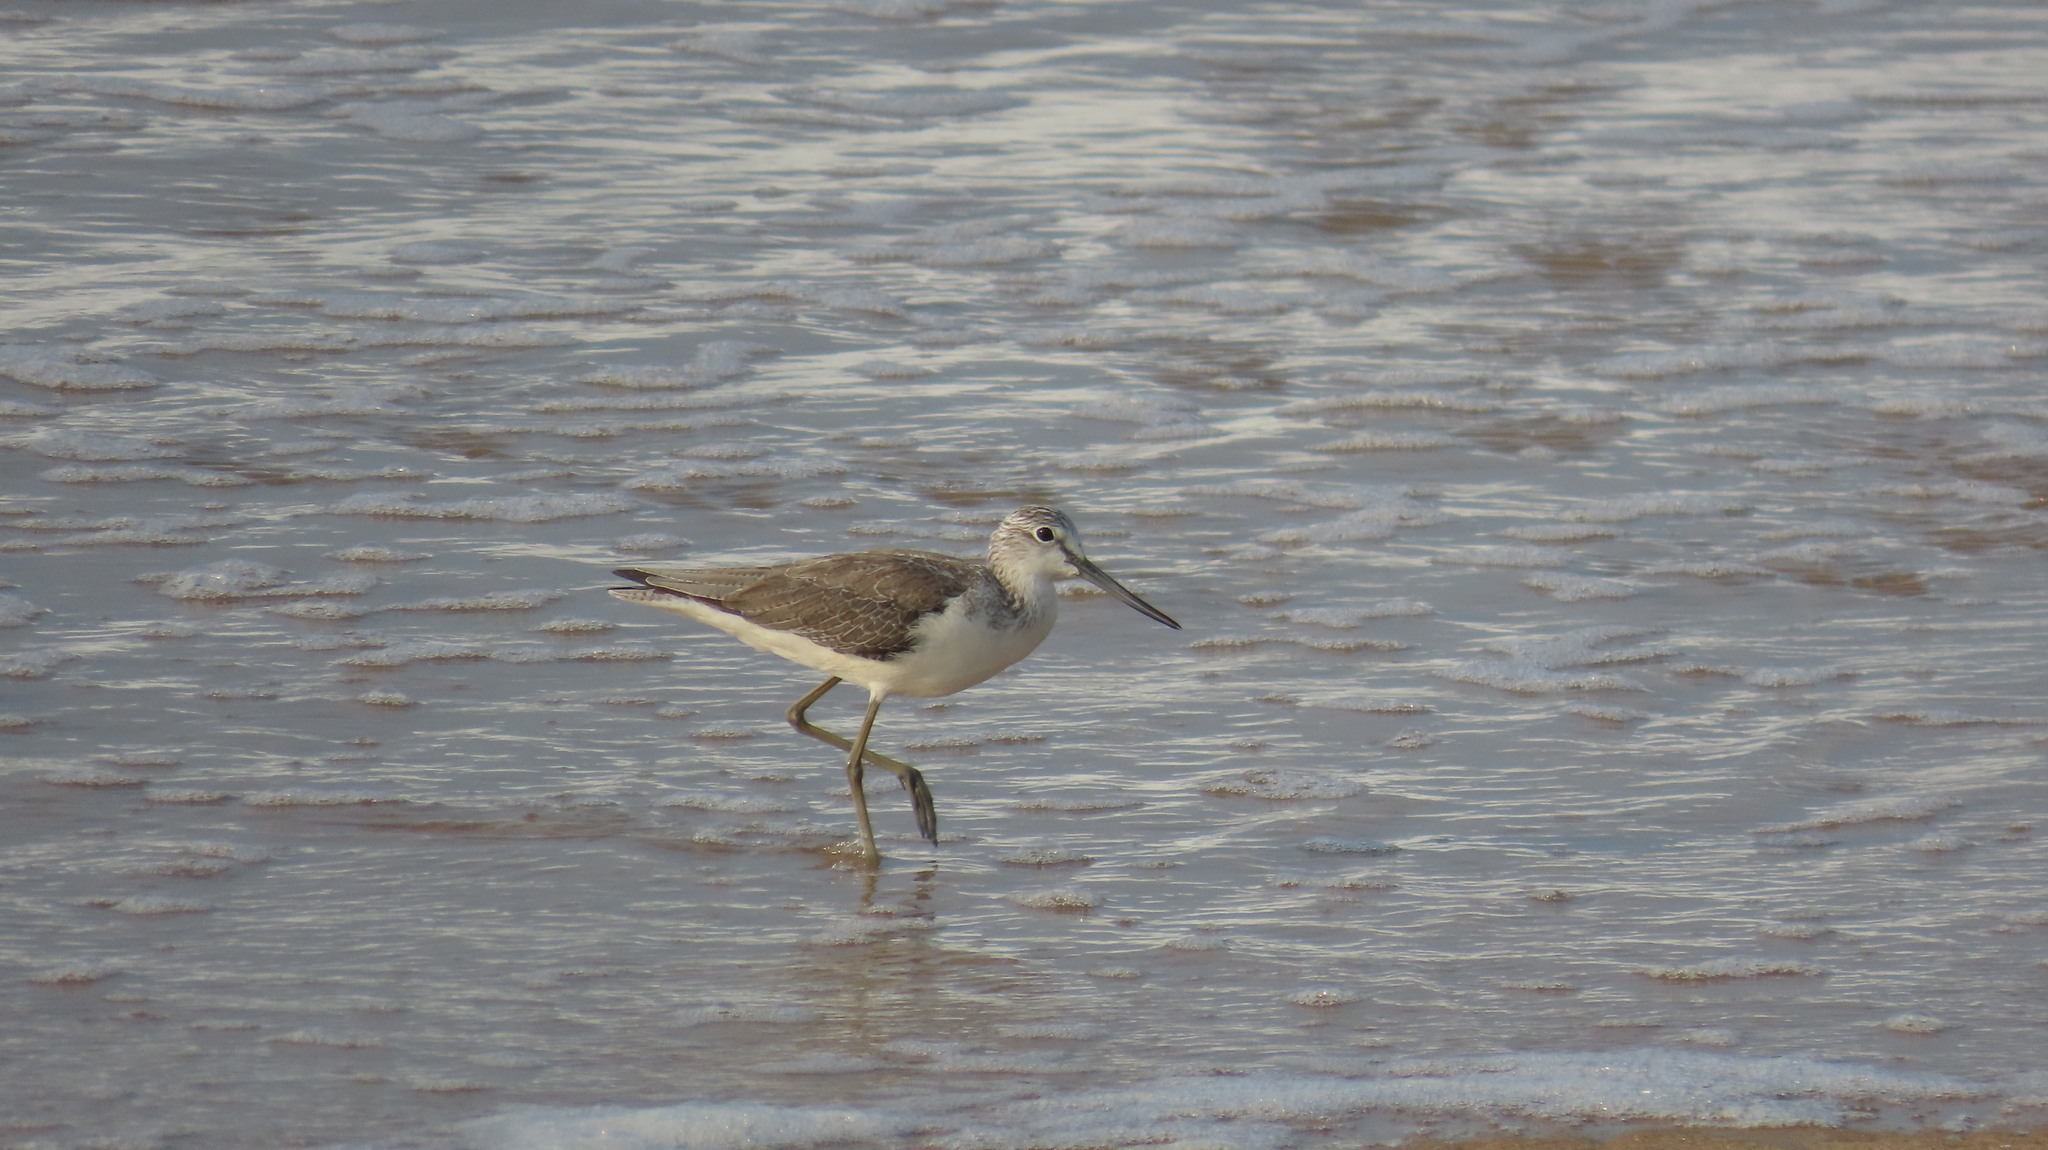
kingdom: Animalia
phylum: Chordata
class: Aves
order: Charadriiformes
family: Scolopacidae
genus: Tringa
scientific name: Tringa nebularia
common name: Common greenshank
